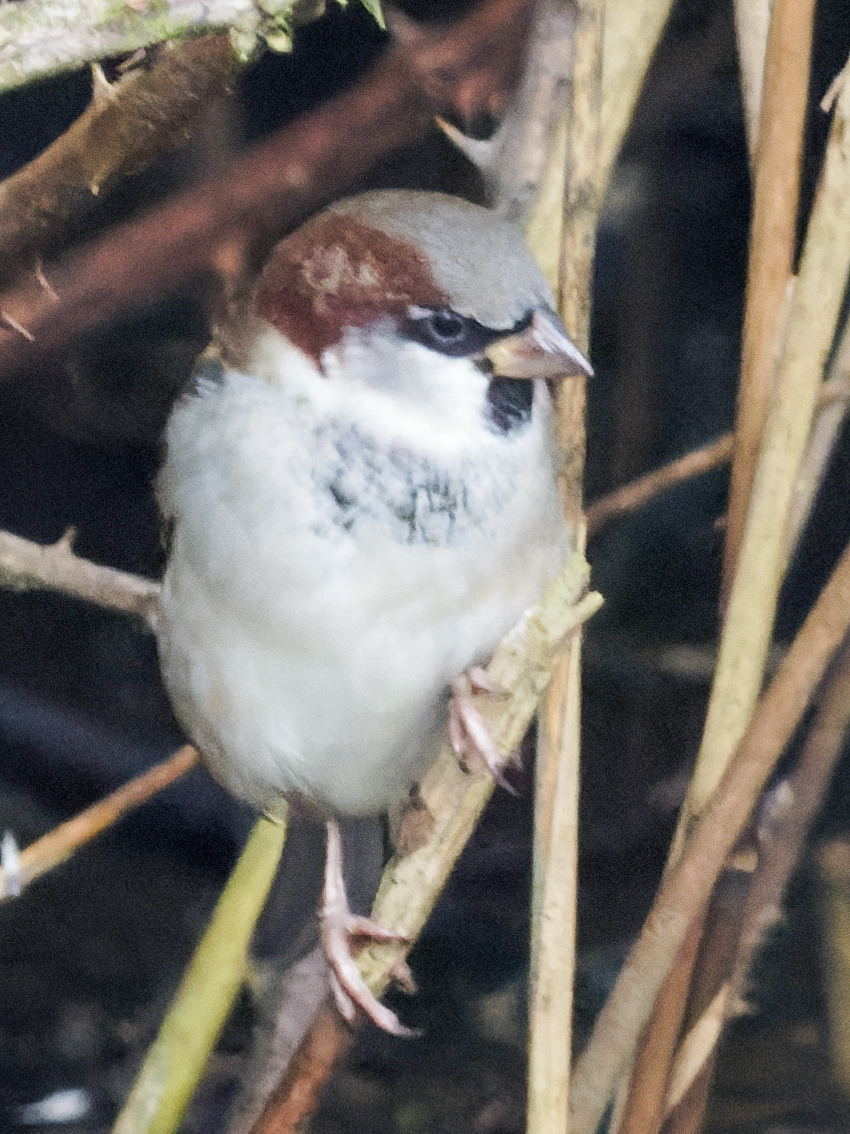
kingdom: Animalia
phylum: Chordata
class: Aves
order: Passeriformes
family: Passeridae
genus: Passer
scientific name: Passer domesticus
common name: House sparrow
